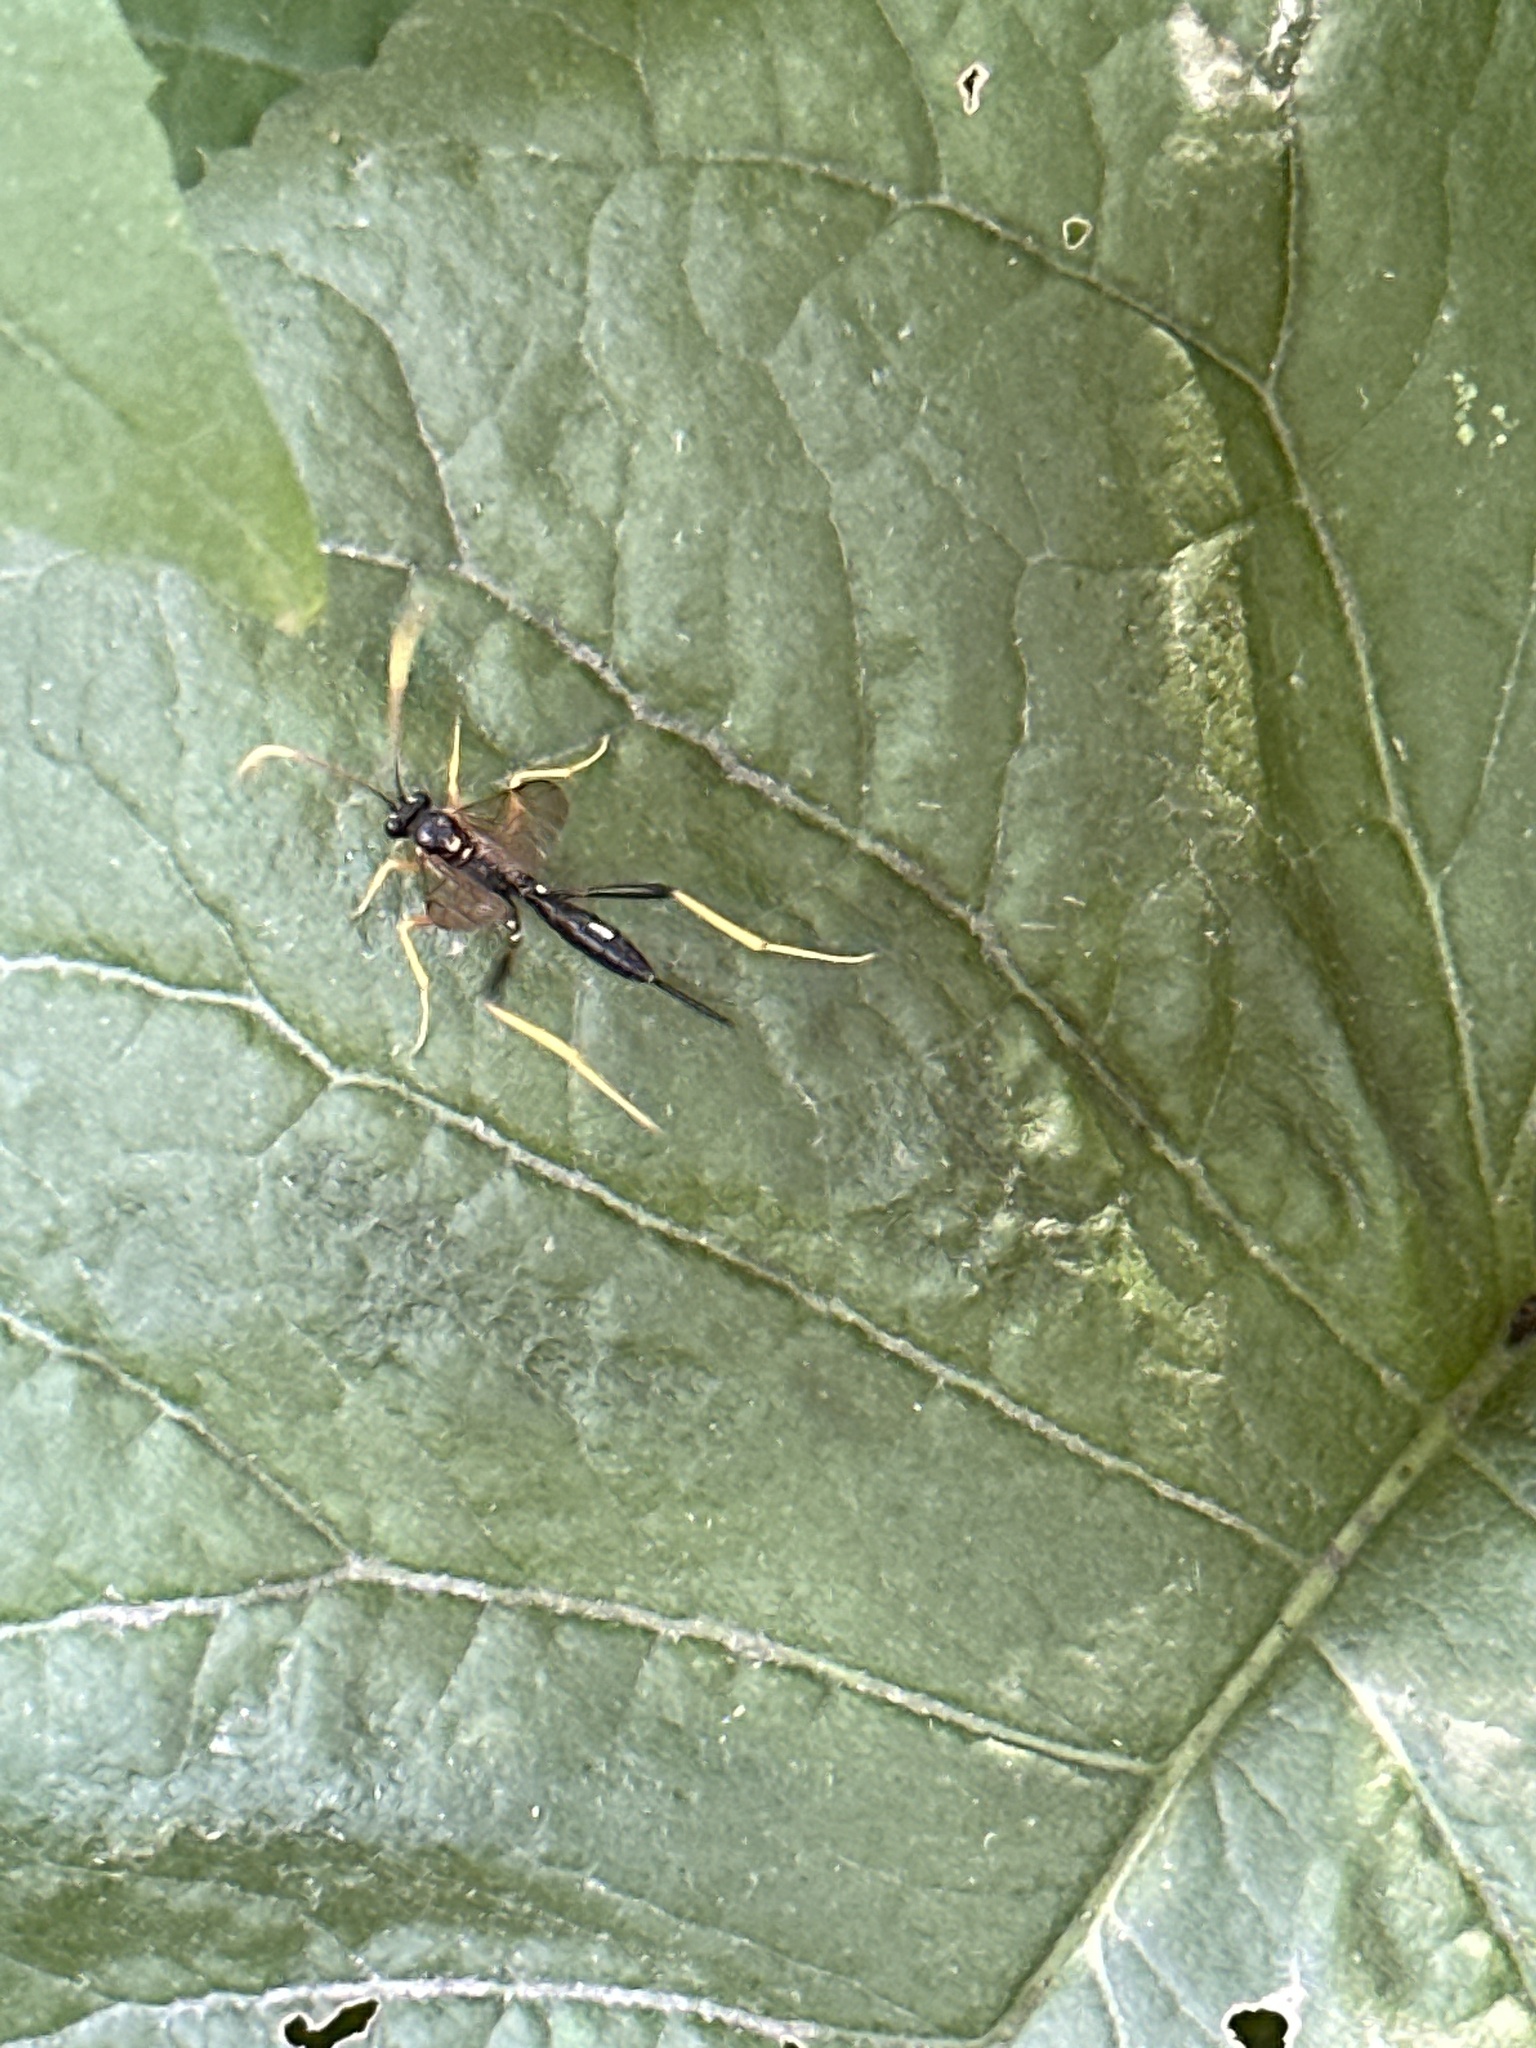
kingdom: Animalia
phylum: Arthropoda
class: Insecta
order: Hymenoptera
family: Ichneumonidae
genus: Acroricnus
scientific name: Acroricnus stylator
